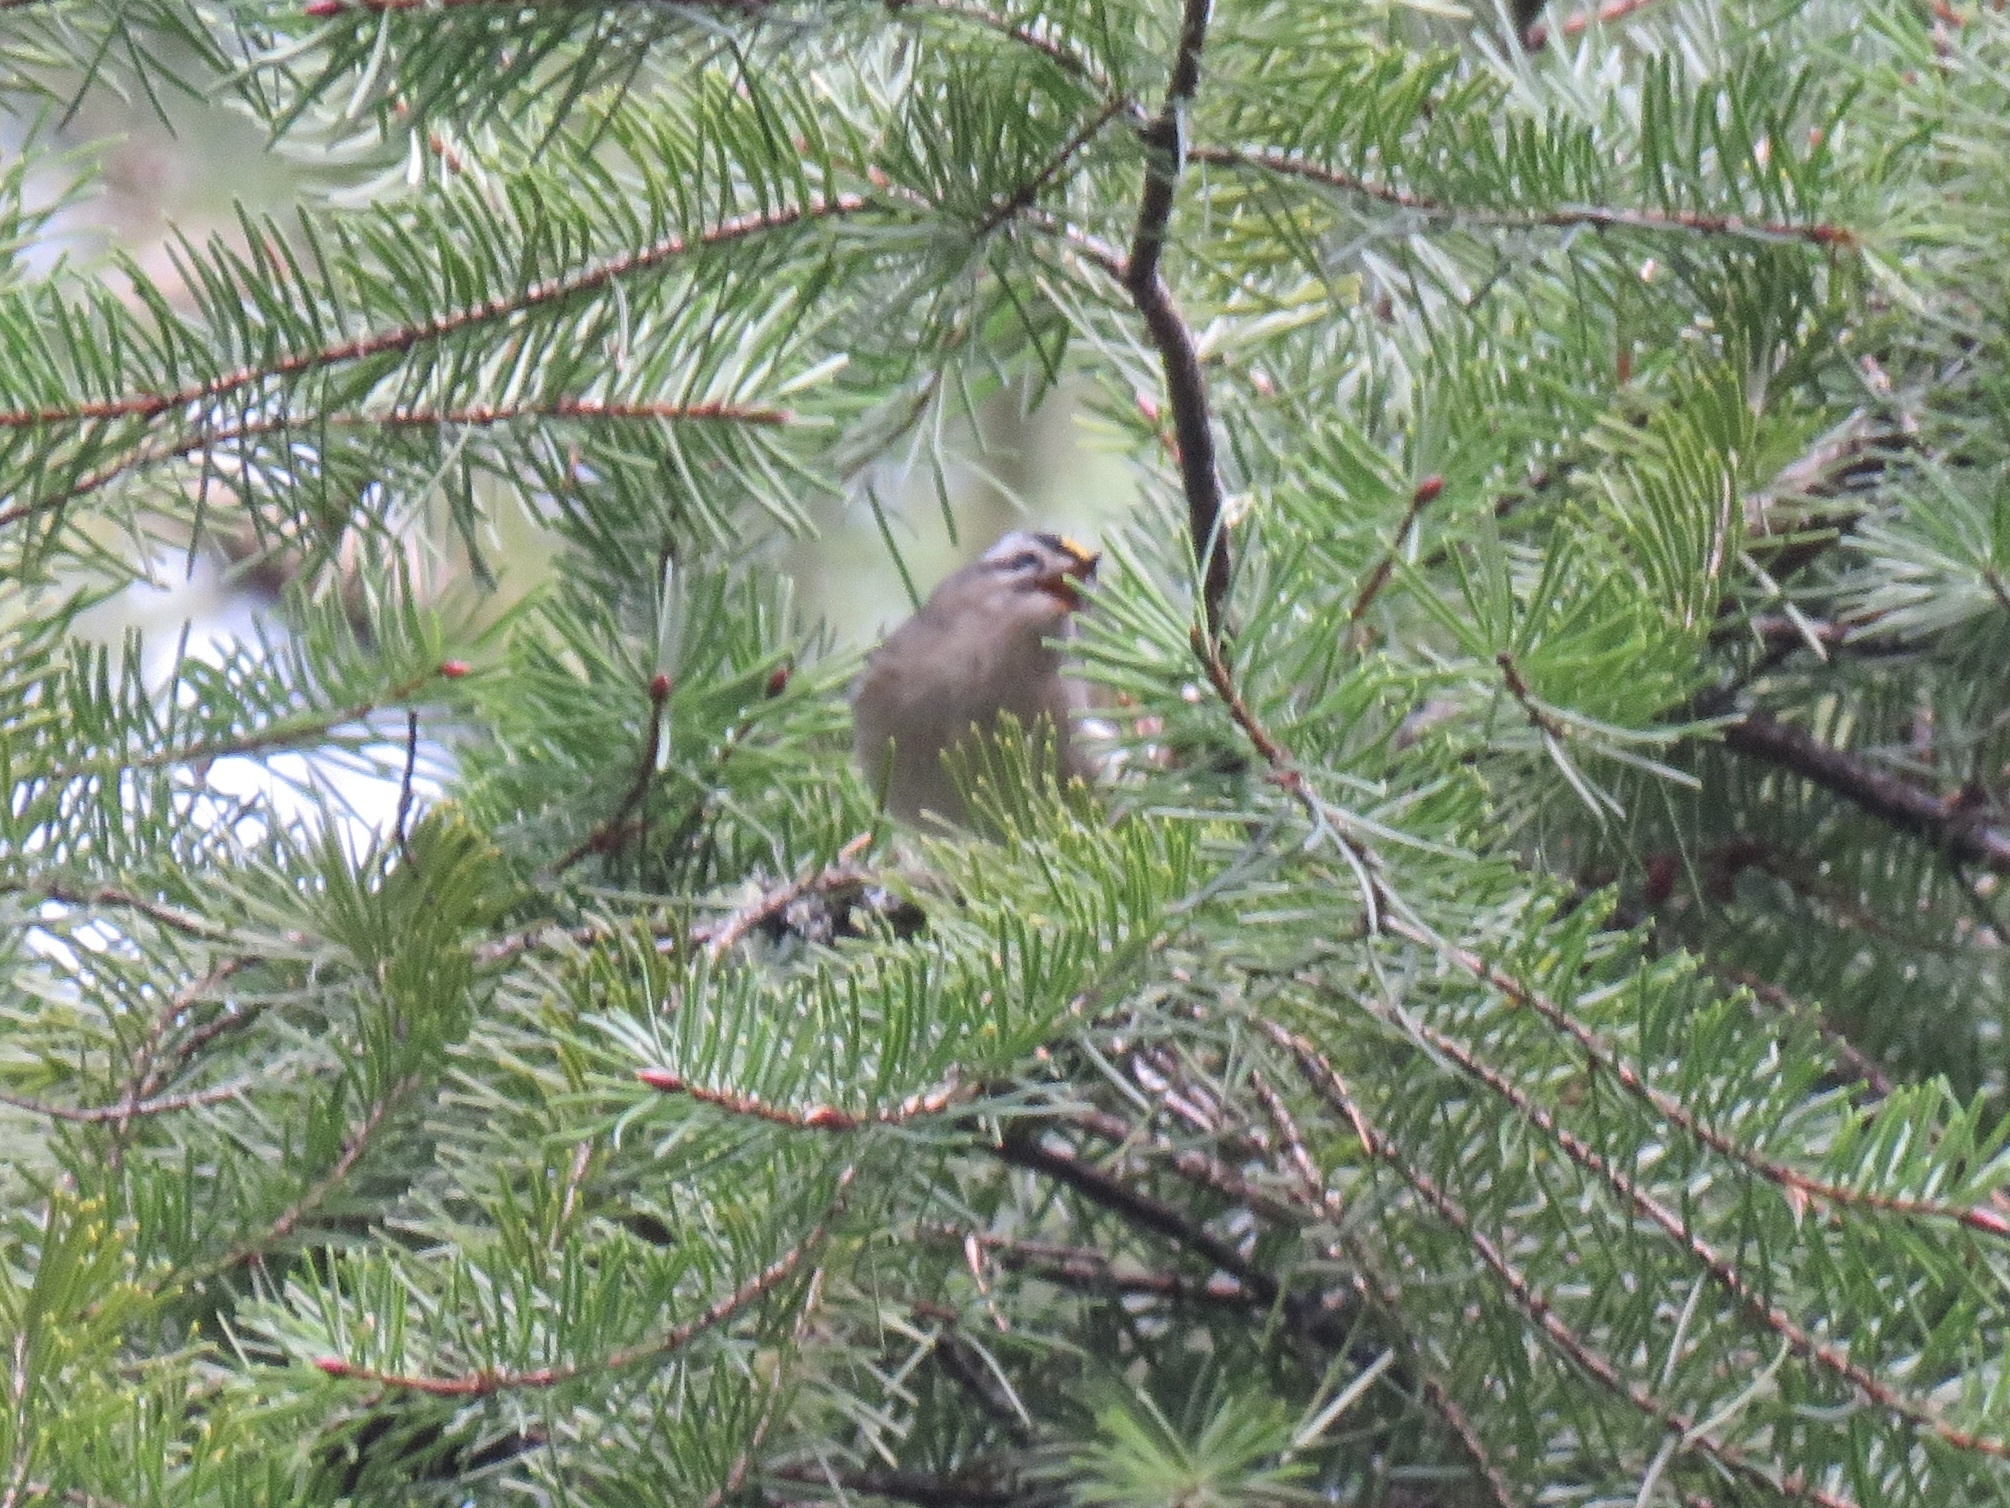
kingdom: Animalia
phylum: Chordata
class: Aves
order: Passeriformes
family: Regulidae
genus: Regulus
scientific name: Regulus satrapa
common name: Golden-crowned kinglet
